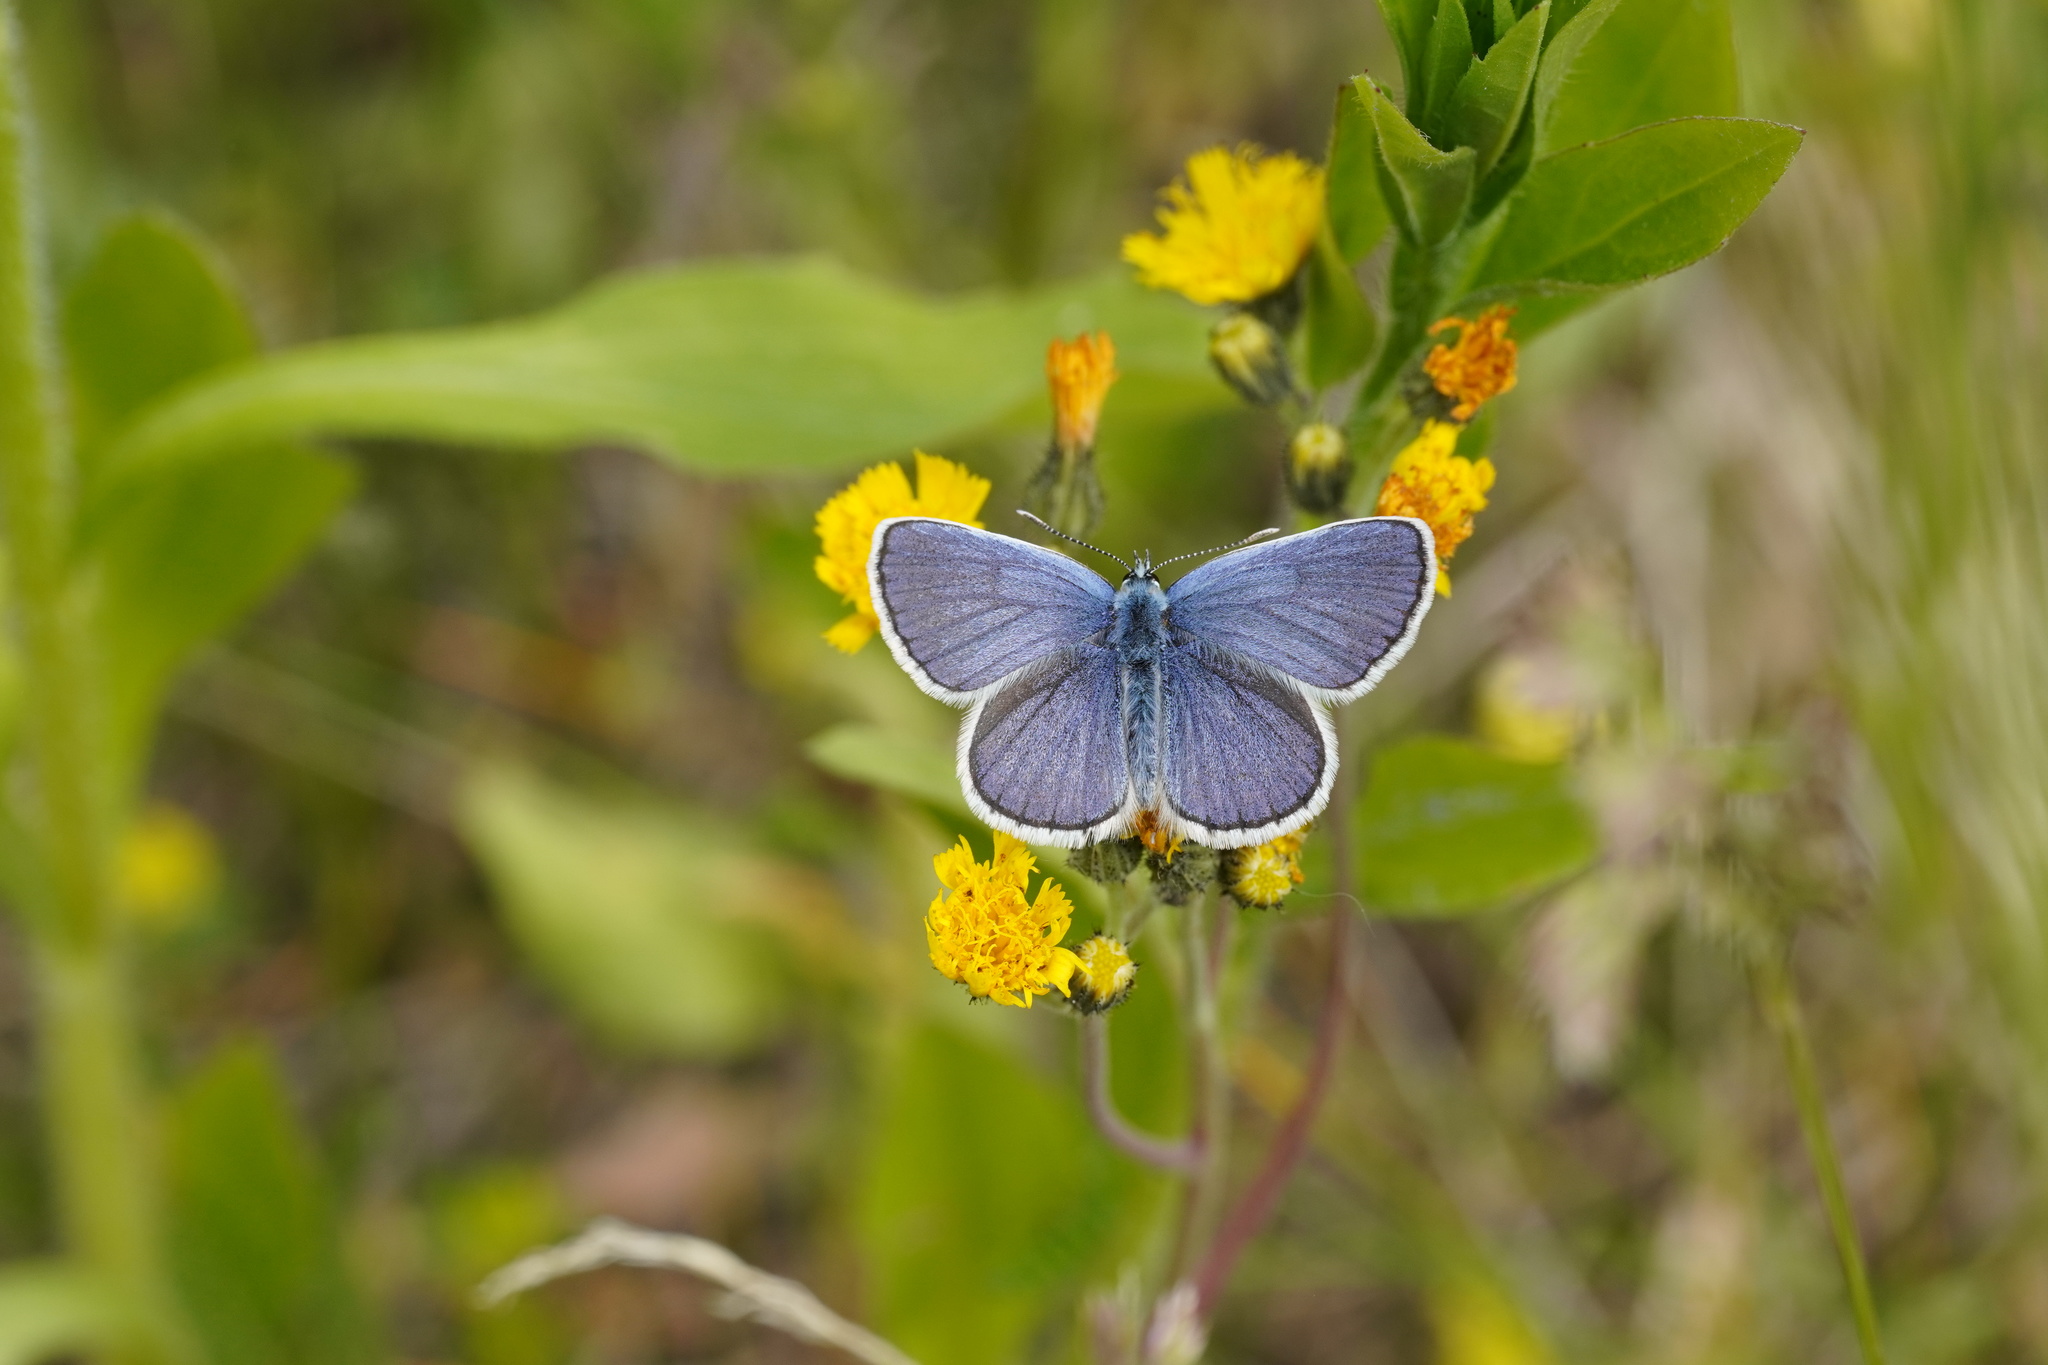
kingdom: Animalia
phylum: Arthropoda
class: Insecta
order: Lepidoptera
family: Lycaenidae
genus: Lycaeides
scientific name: Lycaeides idas
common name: Northern blue
